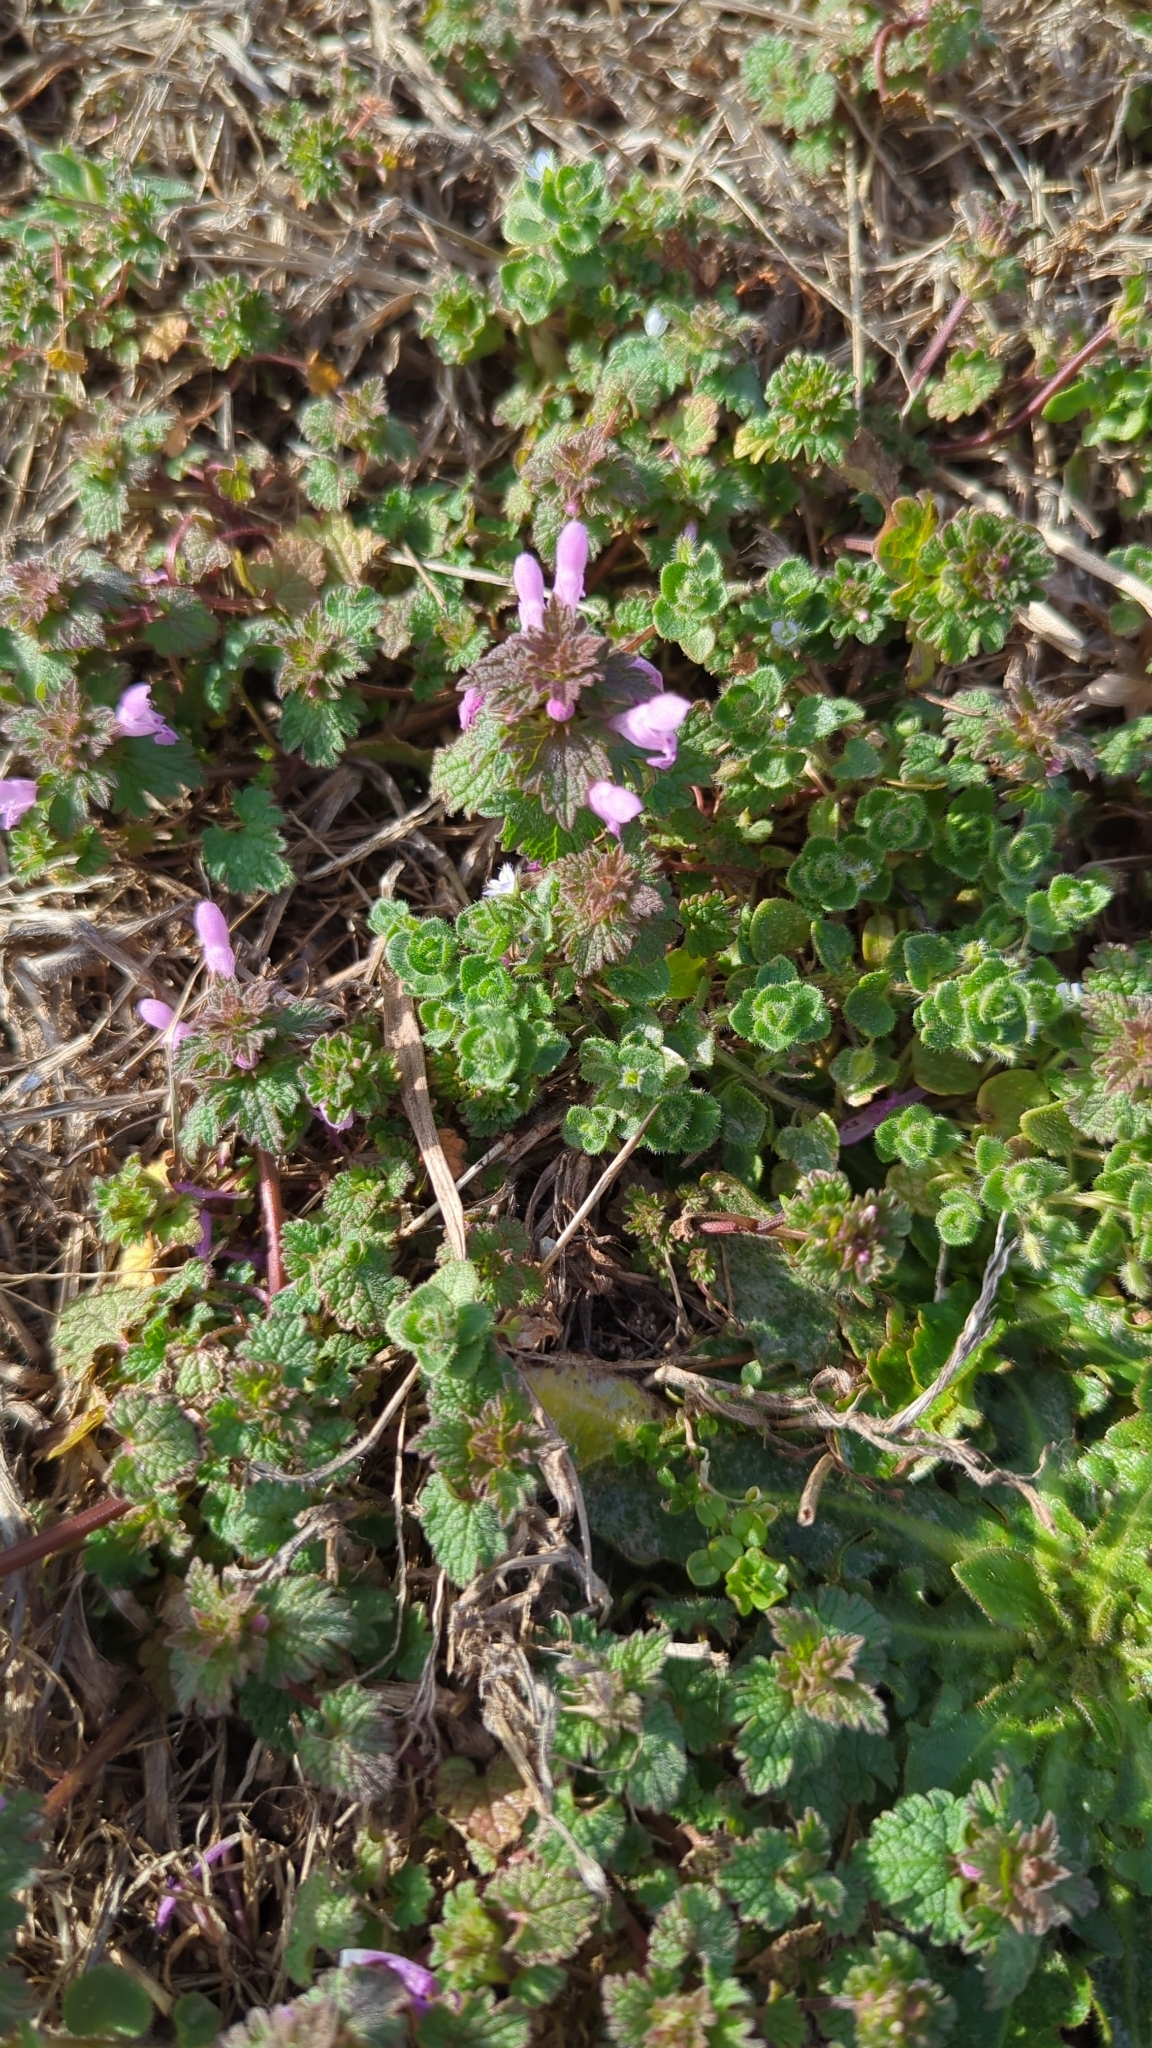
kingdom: Plantae
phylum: Tracheophyta
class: Magnoliopsida
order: Lamiales
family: Lamiaceae
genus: Lamium
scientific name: Lamium purpureum
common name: Red dead-nettle
